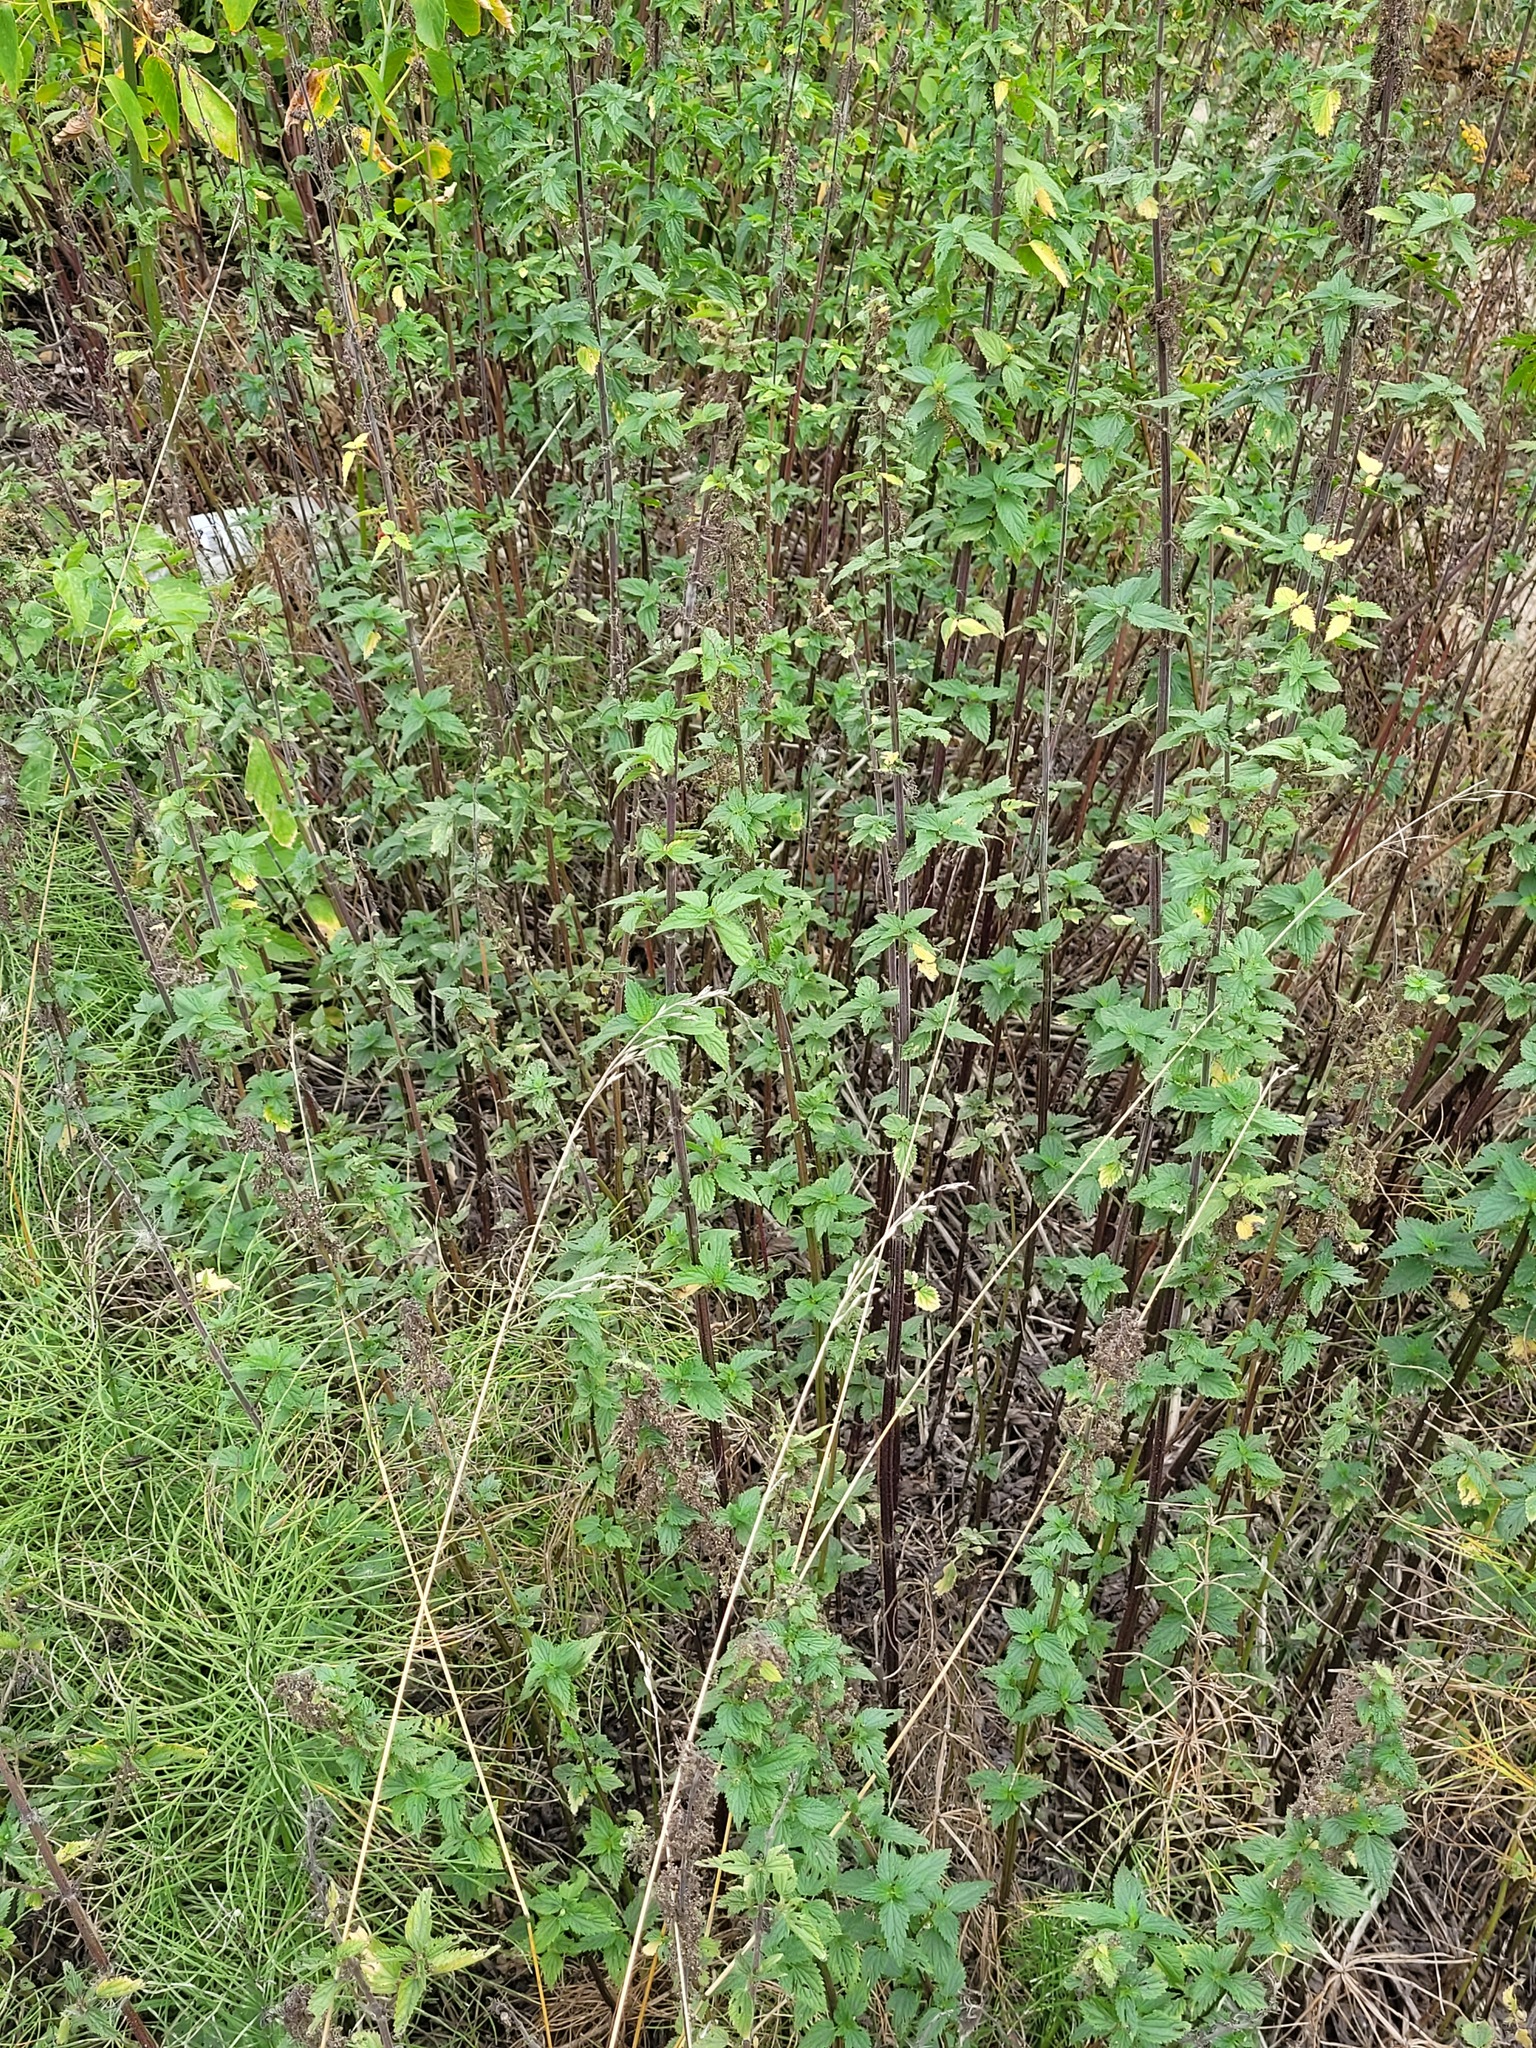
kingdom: Plantae
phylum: Tracheophyta
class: Magnoliopsida
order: Rosales
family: Urticaceae
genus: Urtica
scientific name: Urtica dioica
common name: Common nettle
